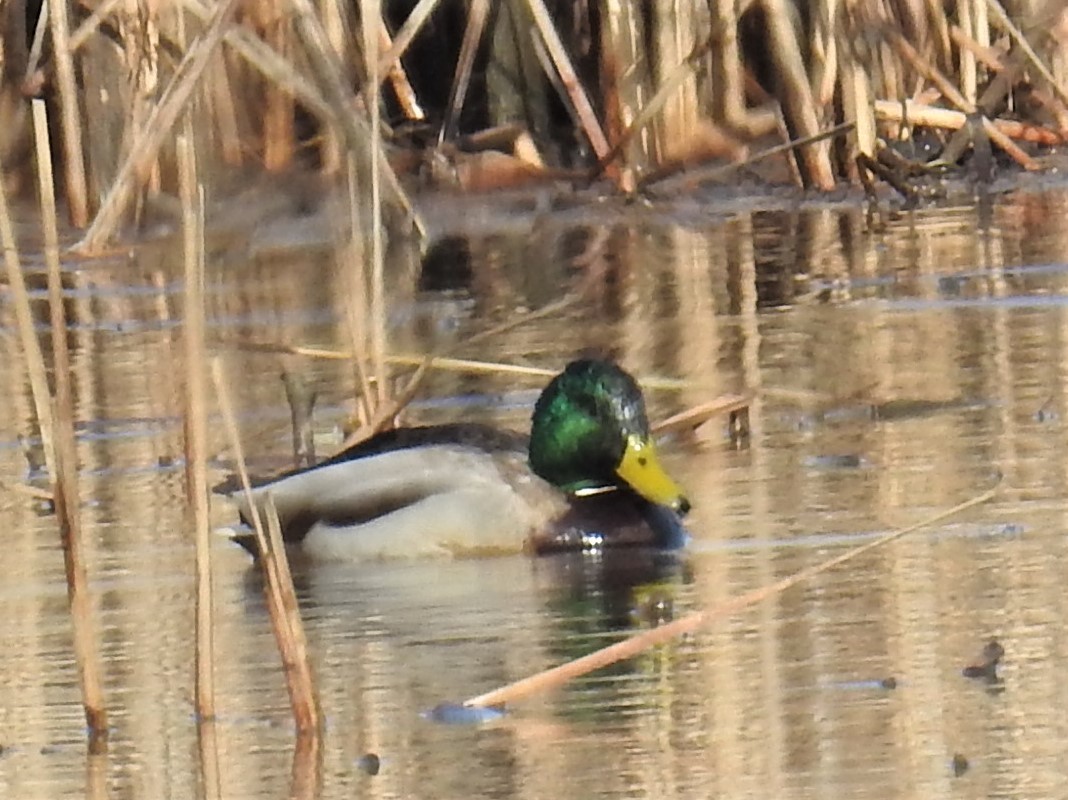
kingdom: Animalia
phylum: Chordata
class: Aves
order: Anseriformes
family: Anatidae
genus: Anas
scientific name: Anas platyrhynchos
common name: Mallard
